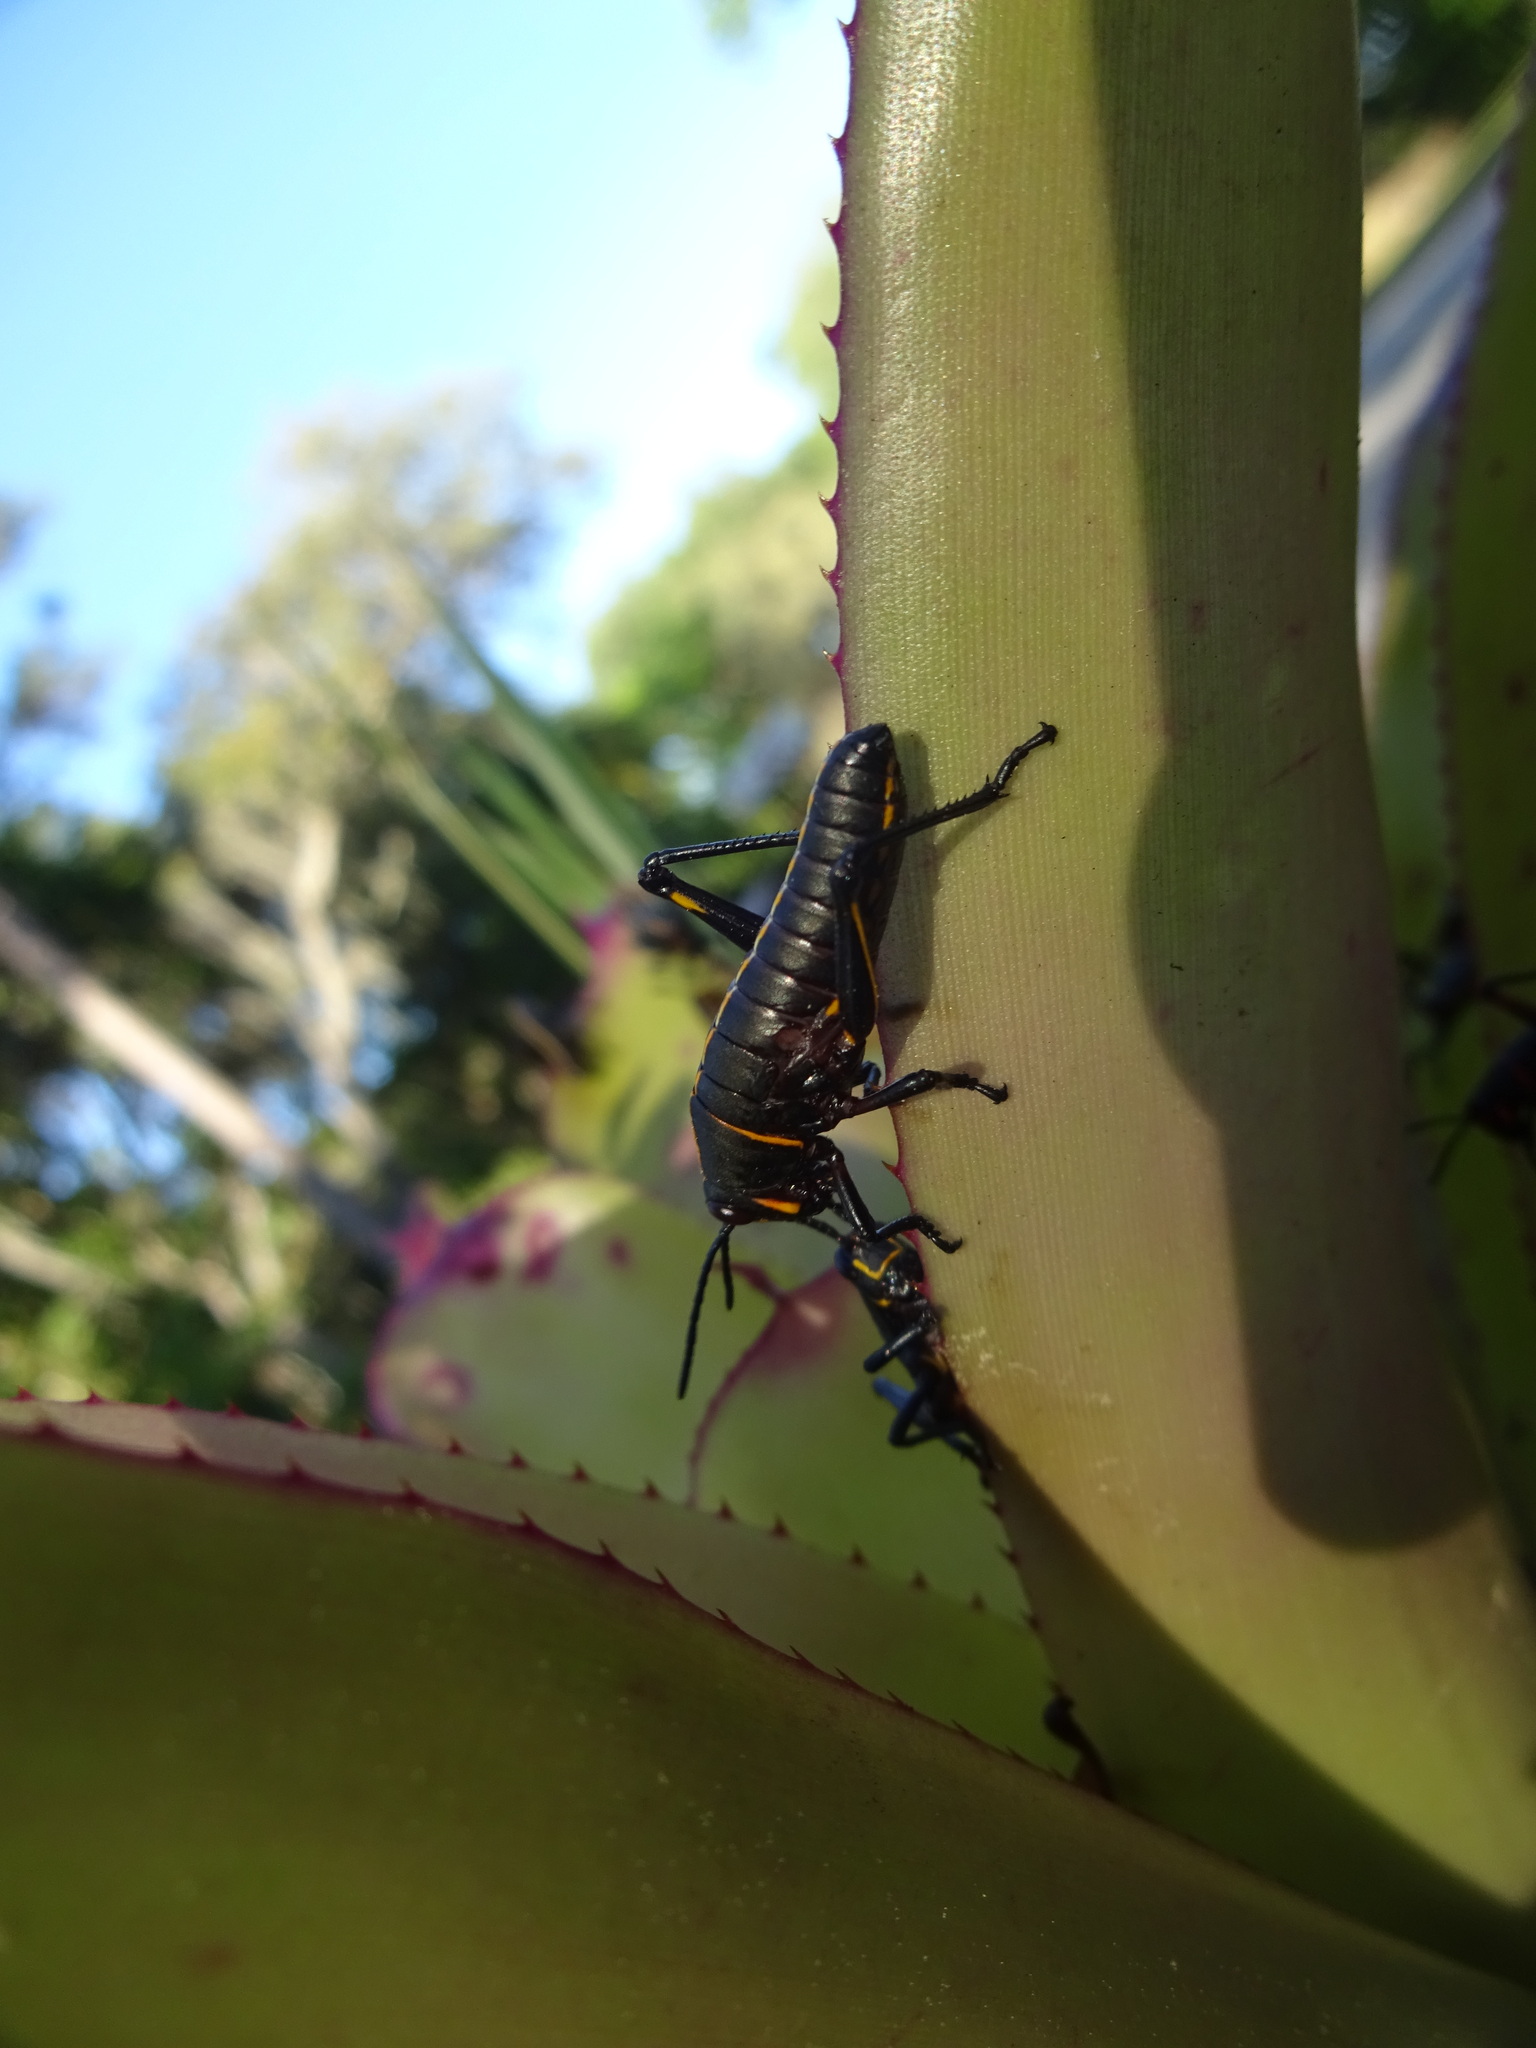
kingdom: Animalia
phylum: Arthropoda
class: Insecta
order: Orthoptera
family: Romaleidae
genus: Romalea
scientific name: Romalea microptera
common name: Eastern lubber grasshopper
